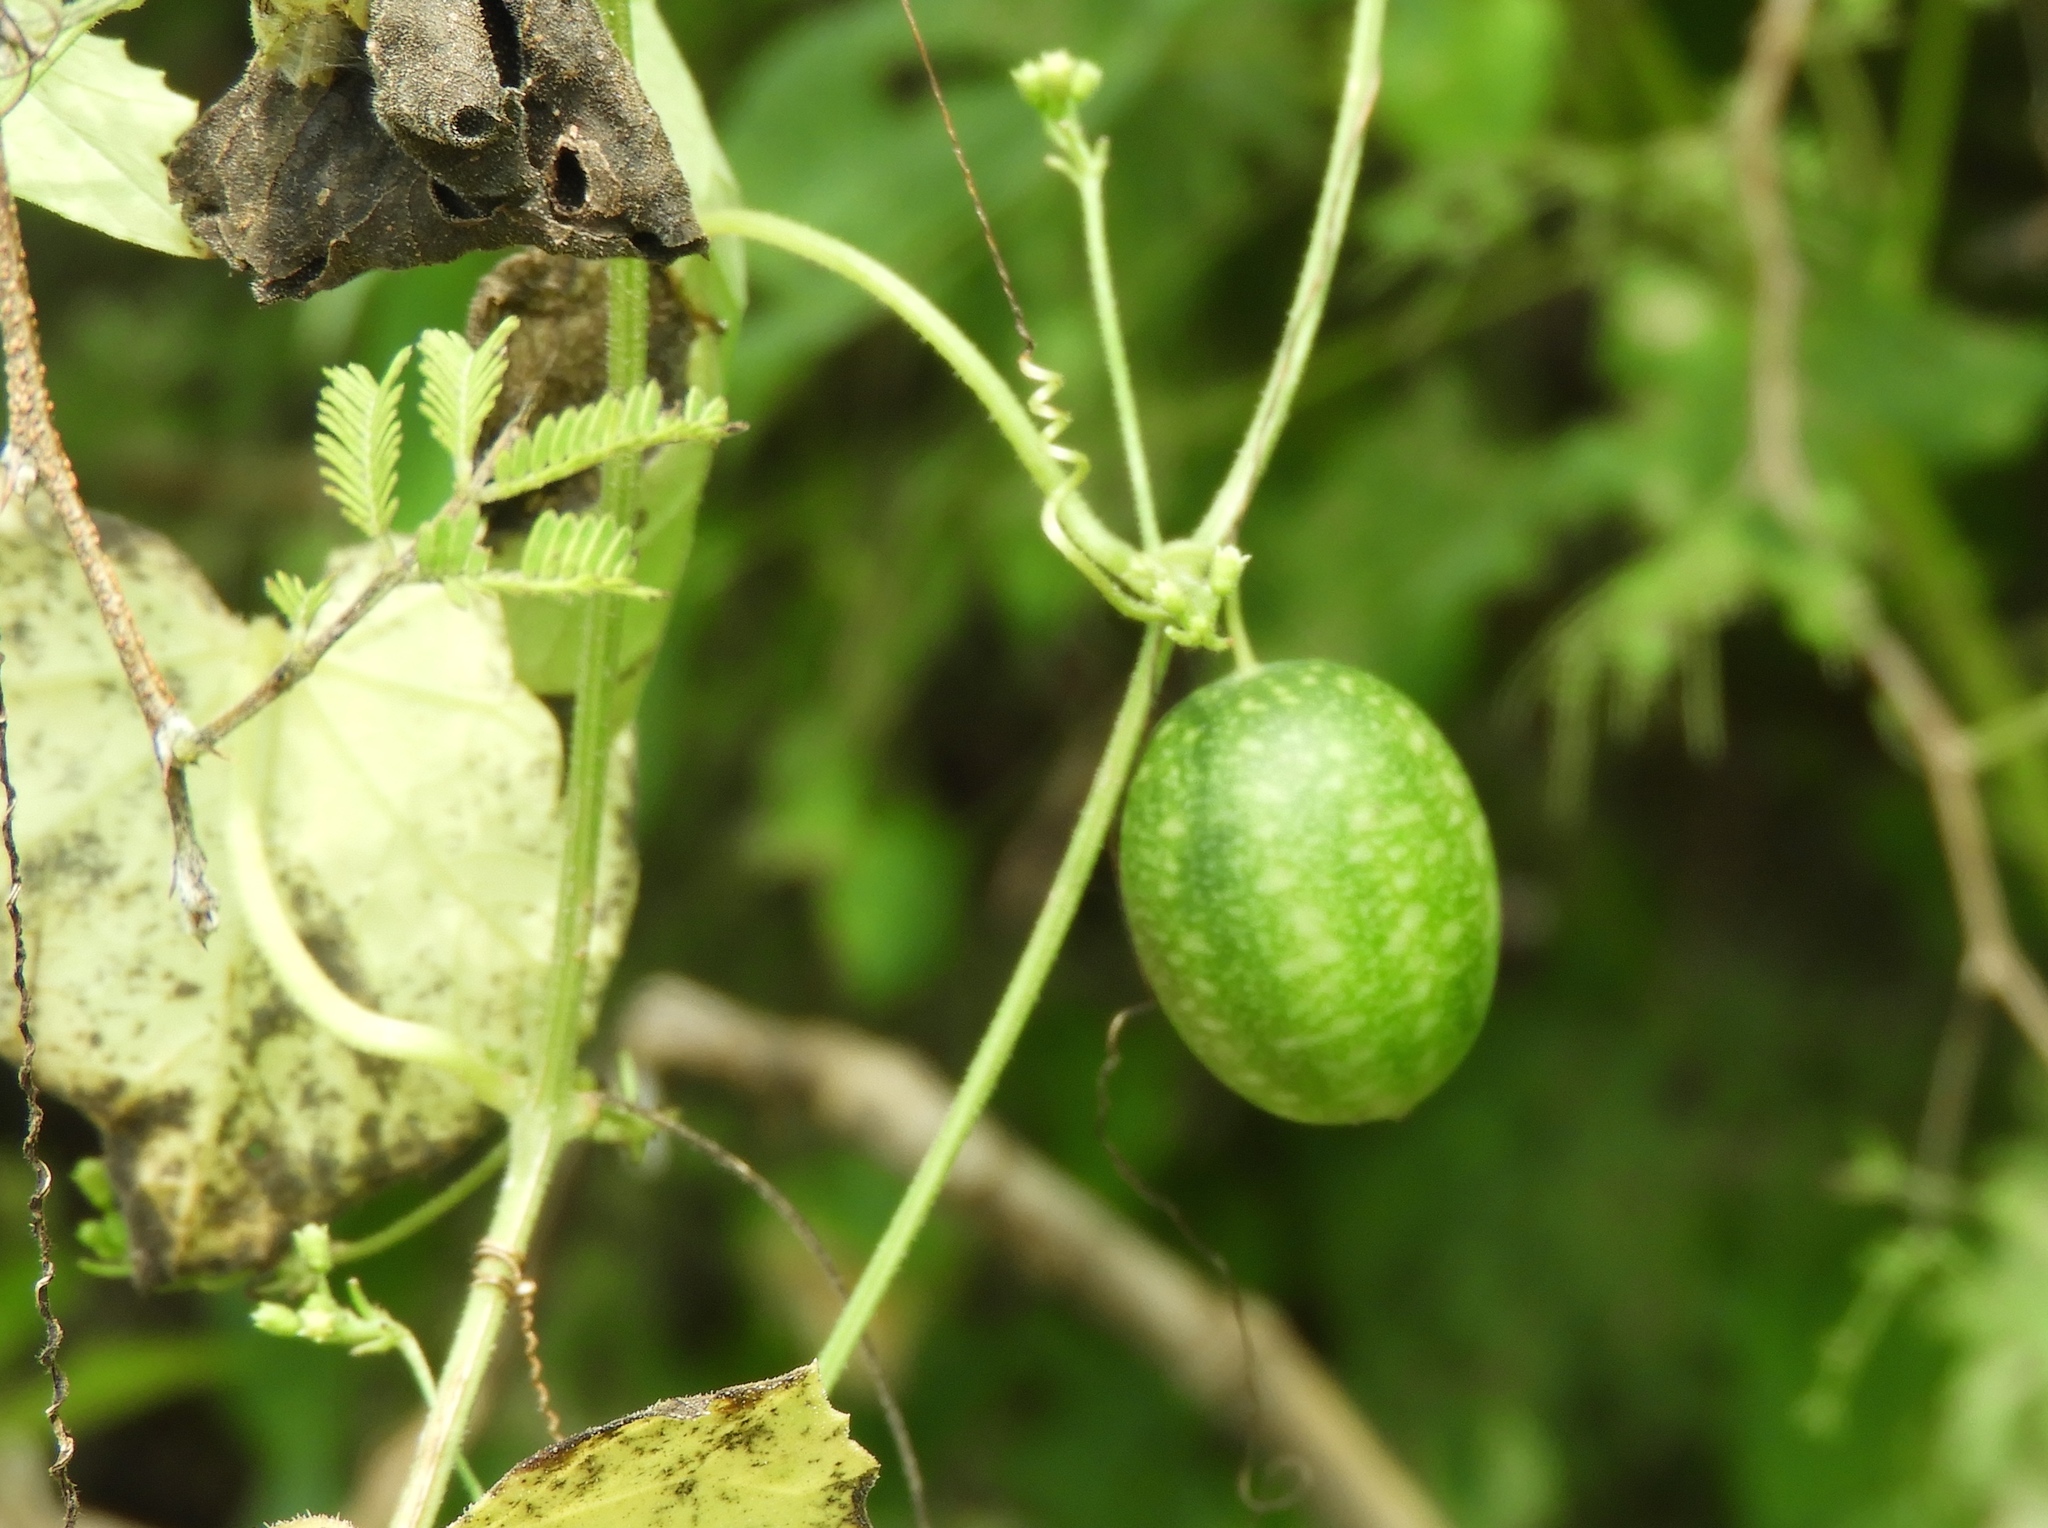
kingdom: Plantae
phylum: Tracheophyta
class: Magnoliopsida
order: Cucurbitales
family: Cucurbitaceae
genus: Melothria
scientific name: Melothria pendula
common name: Creeping-cucumber
